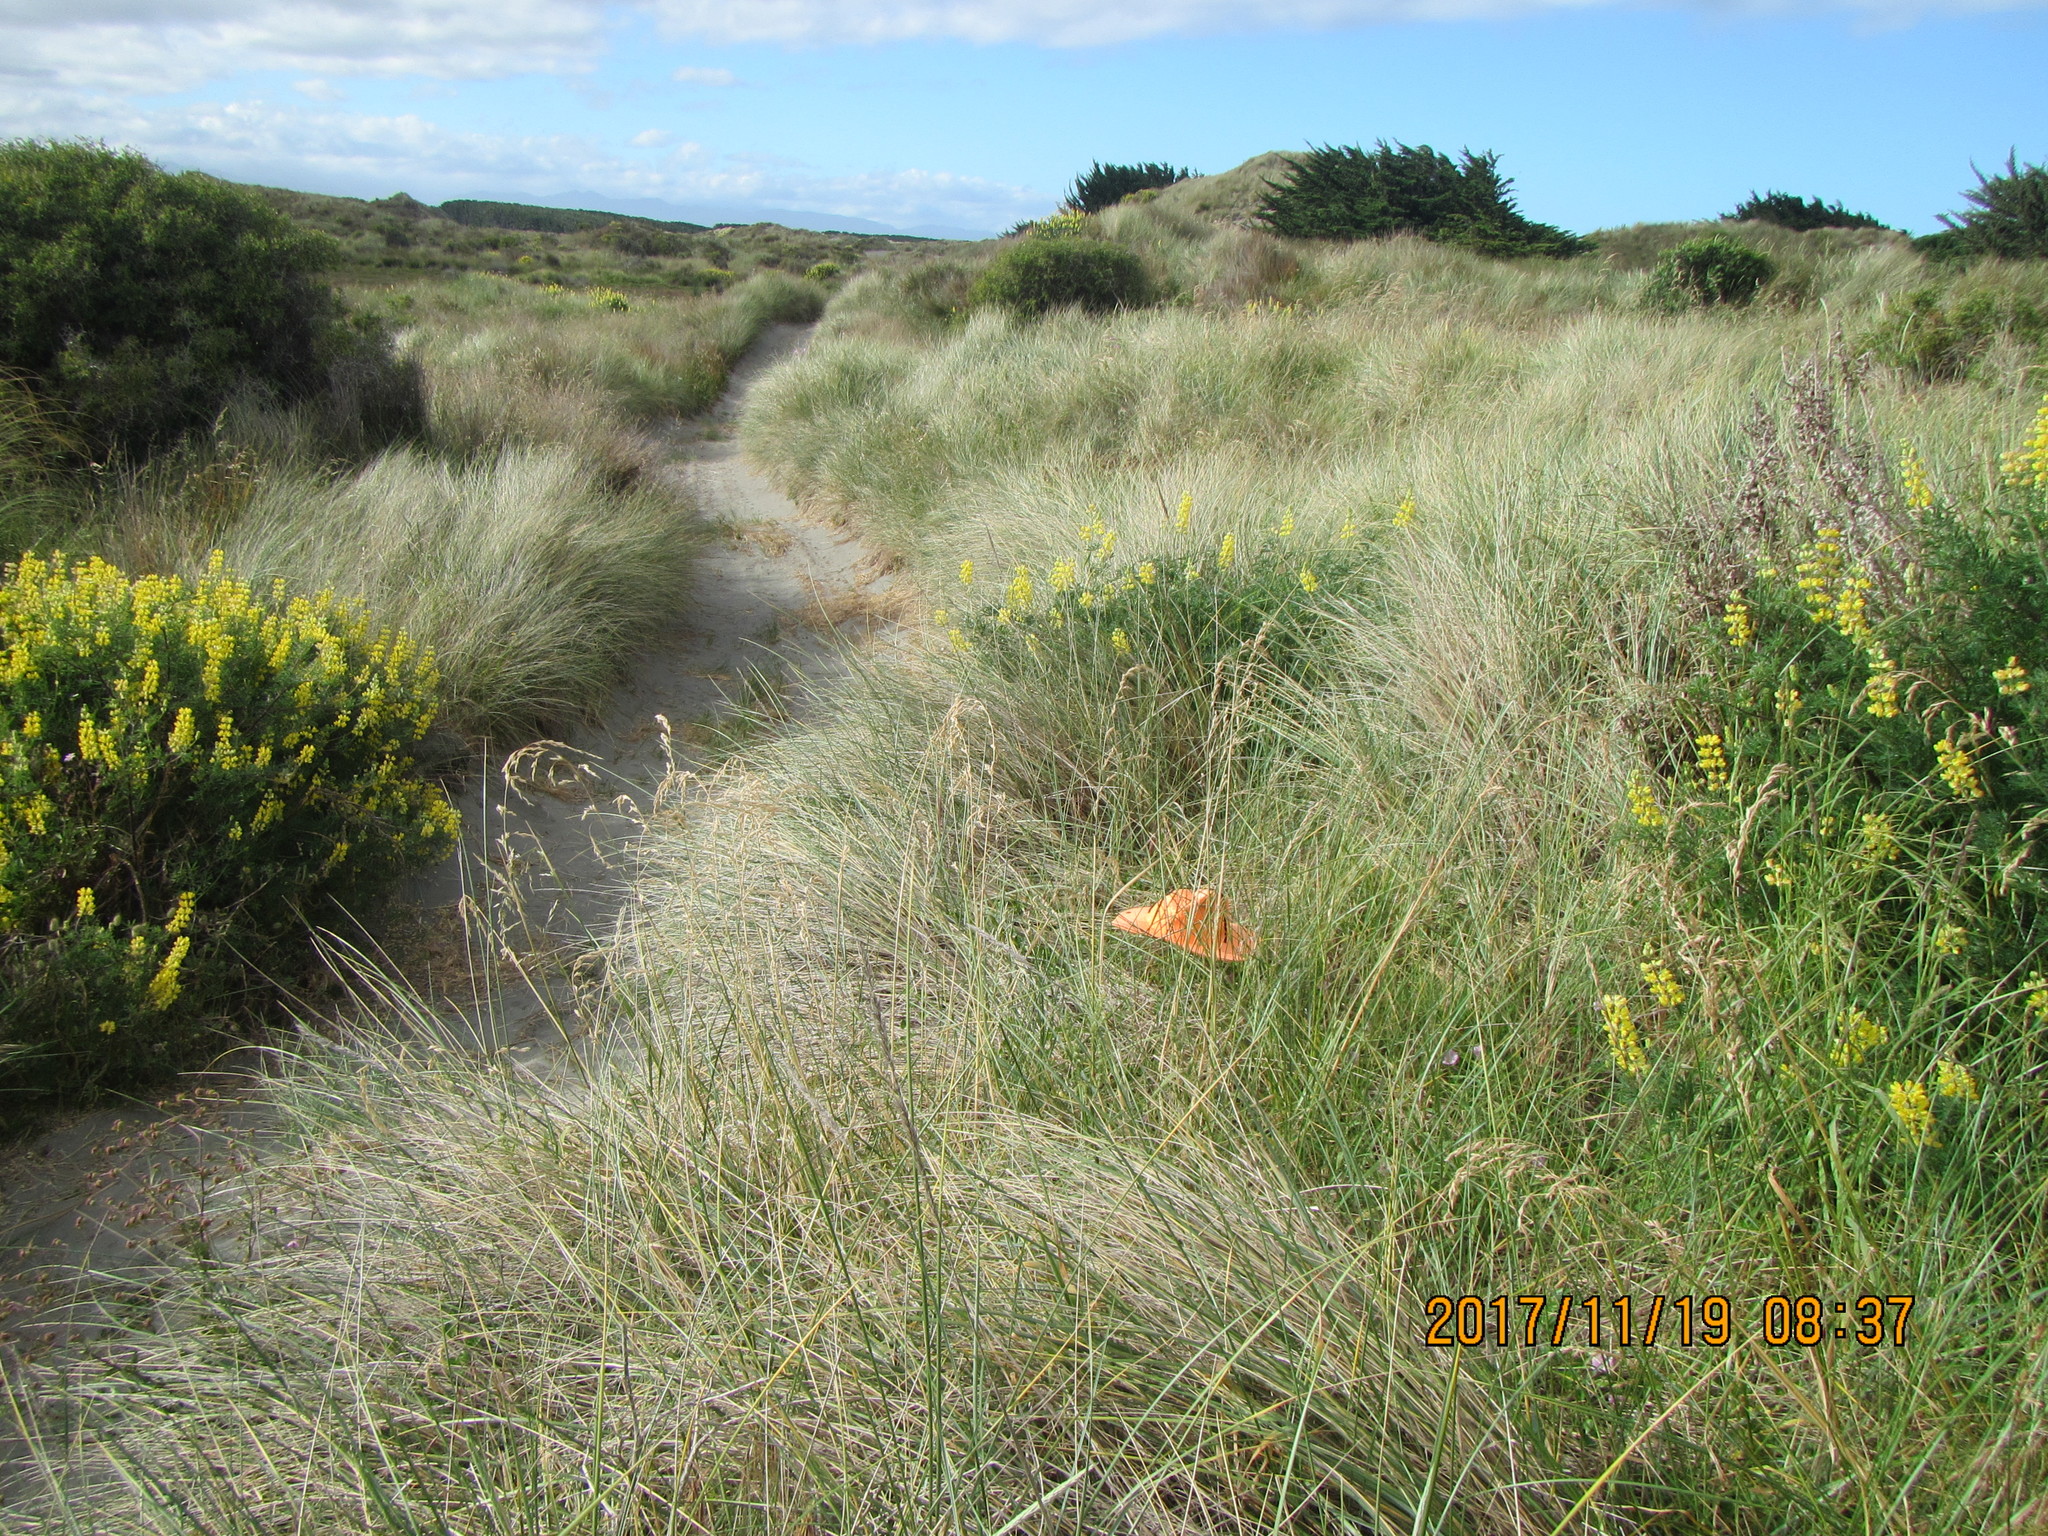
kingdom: Plantae
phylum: Tracheophyta
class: Magnoliopsida
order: Solanales
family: Convolvulaceae
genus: Calystegia
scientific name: Calystegia soldanella
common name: Sea bindweed
